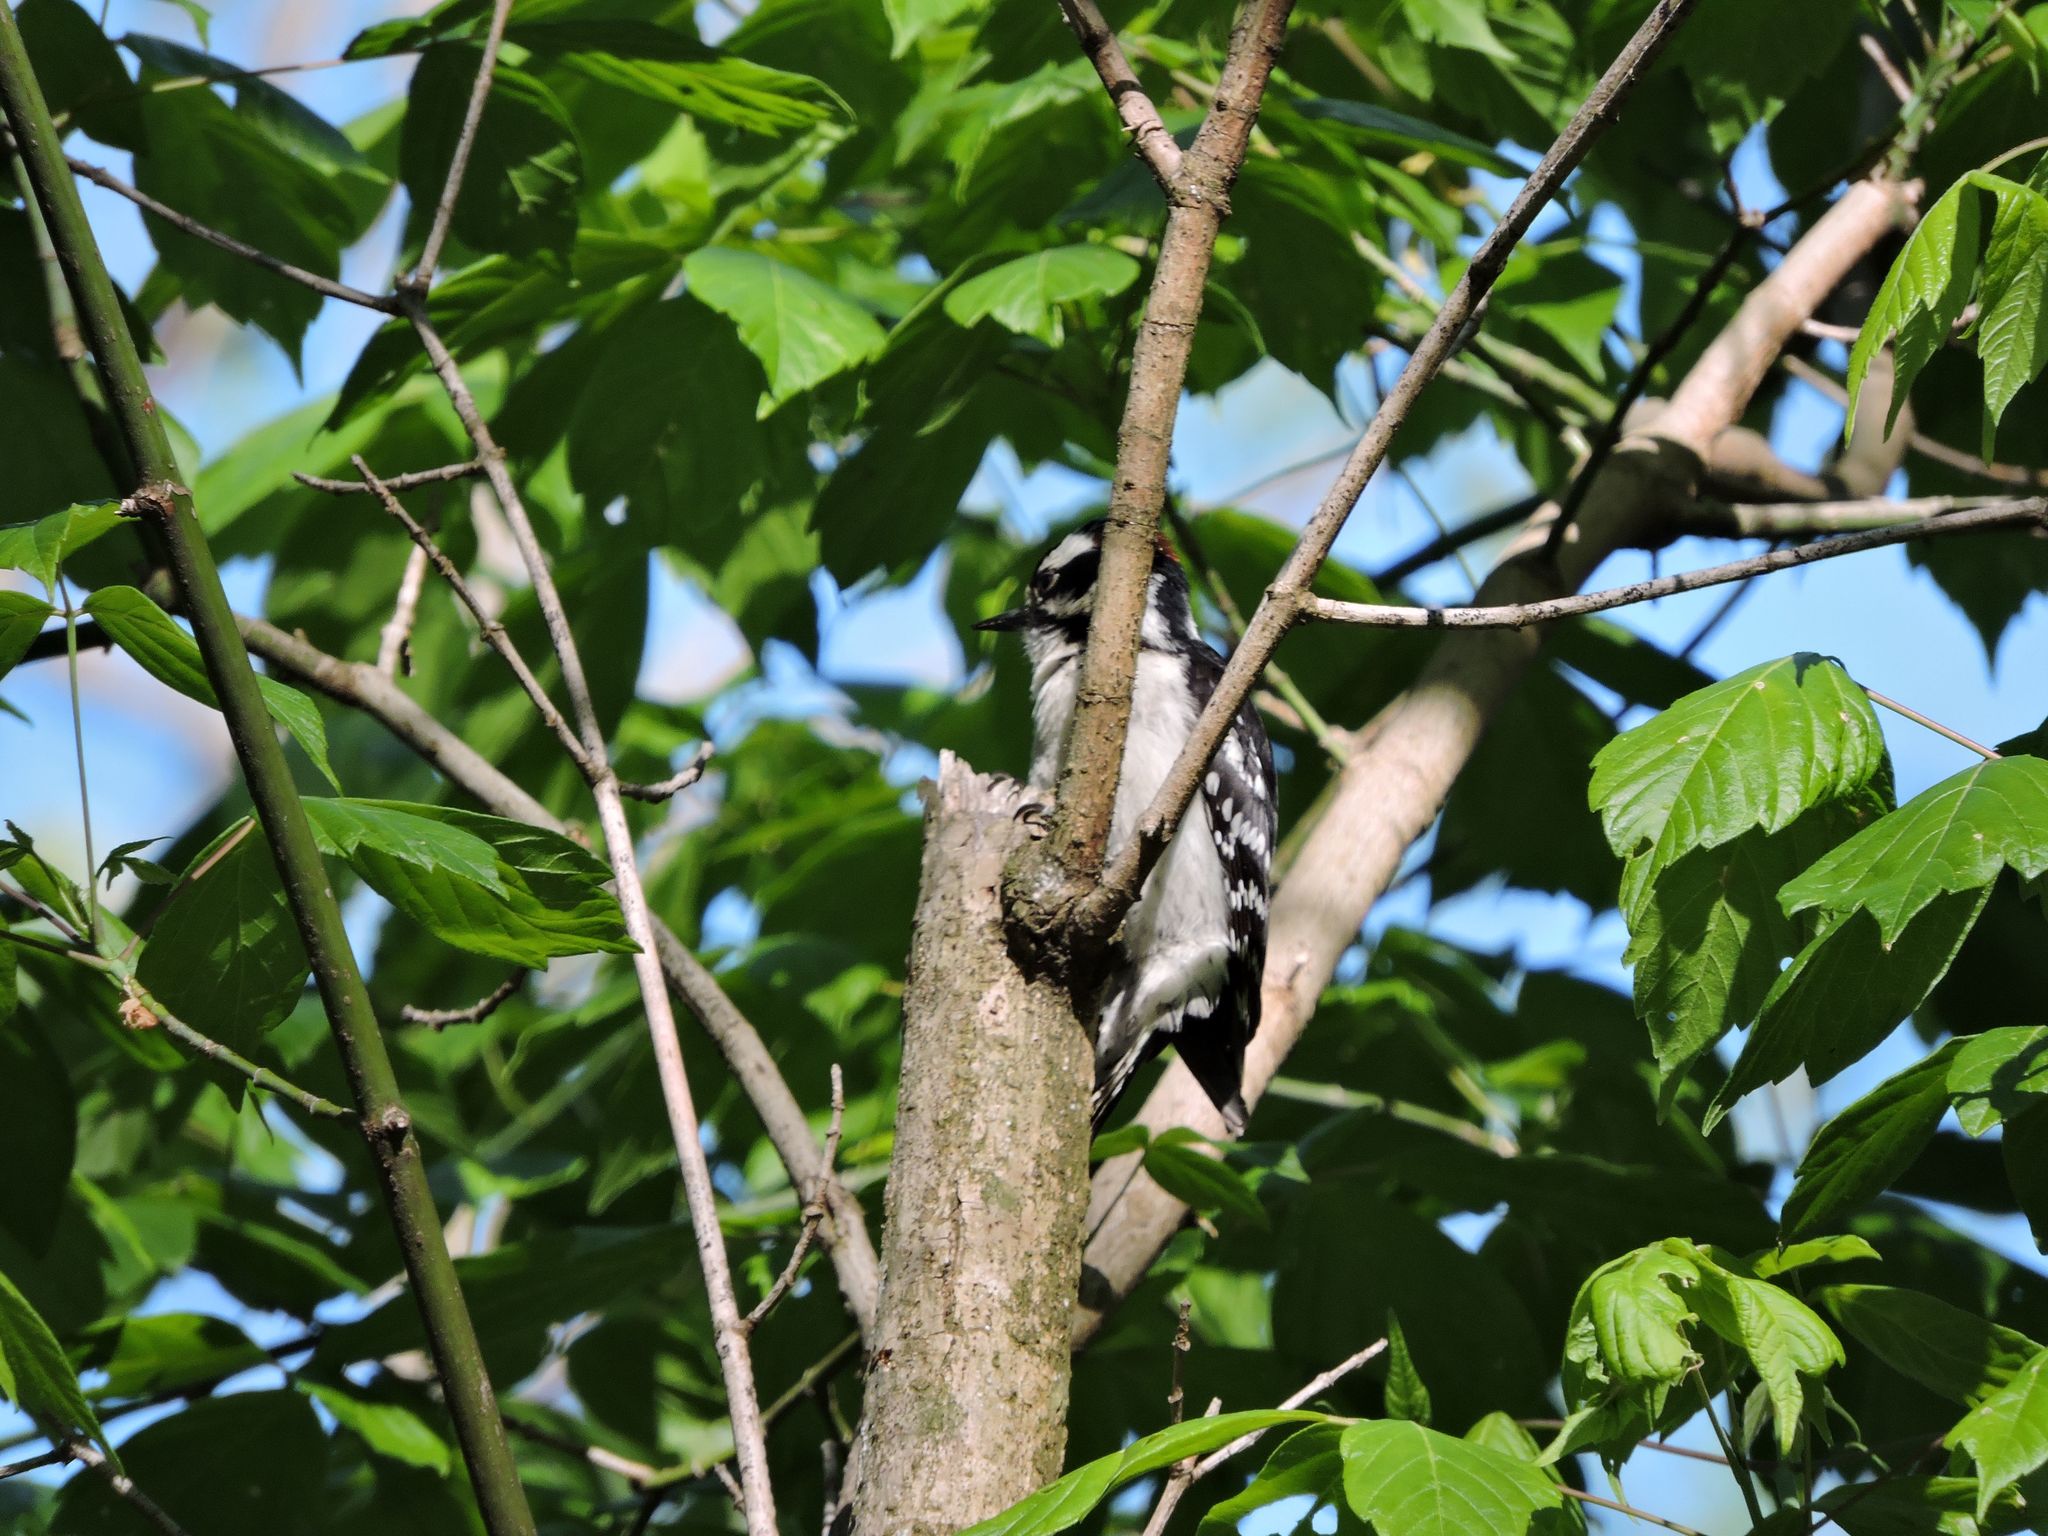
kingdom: Animalia
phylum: Chordata
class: Aves
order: Piciformes
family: Picidae
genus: Dryobates
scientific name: Dryobates pubescens
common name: Downy woodpecker
